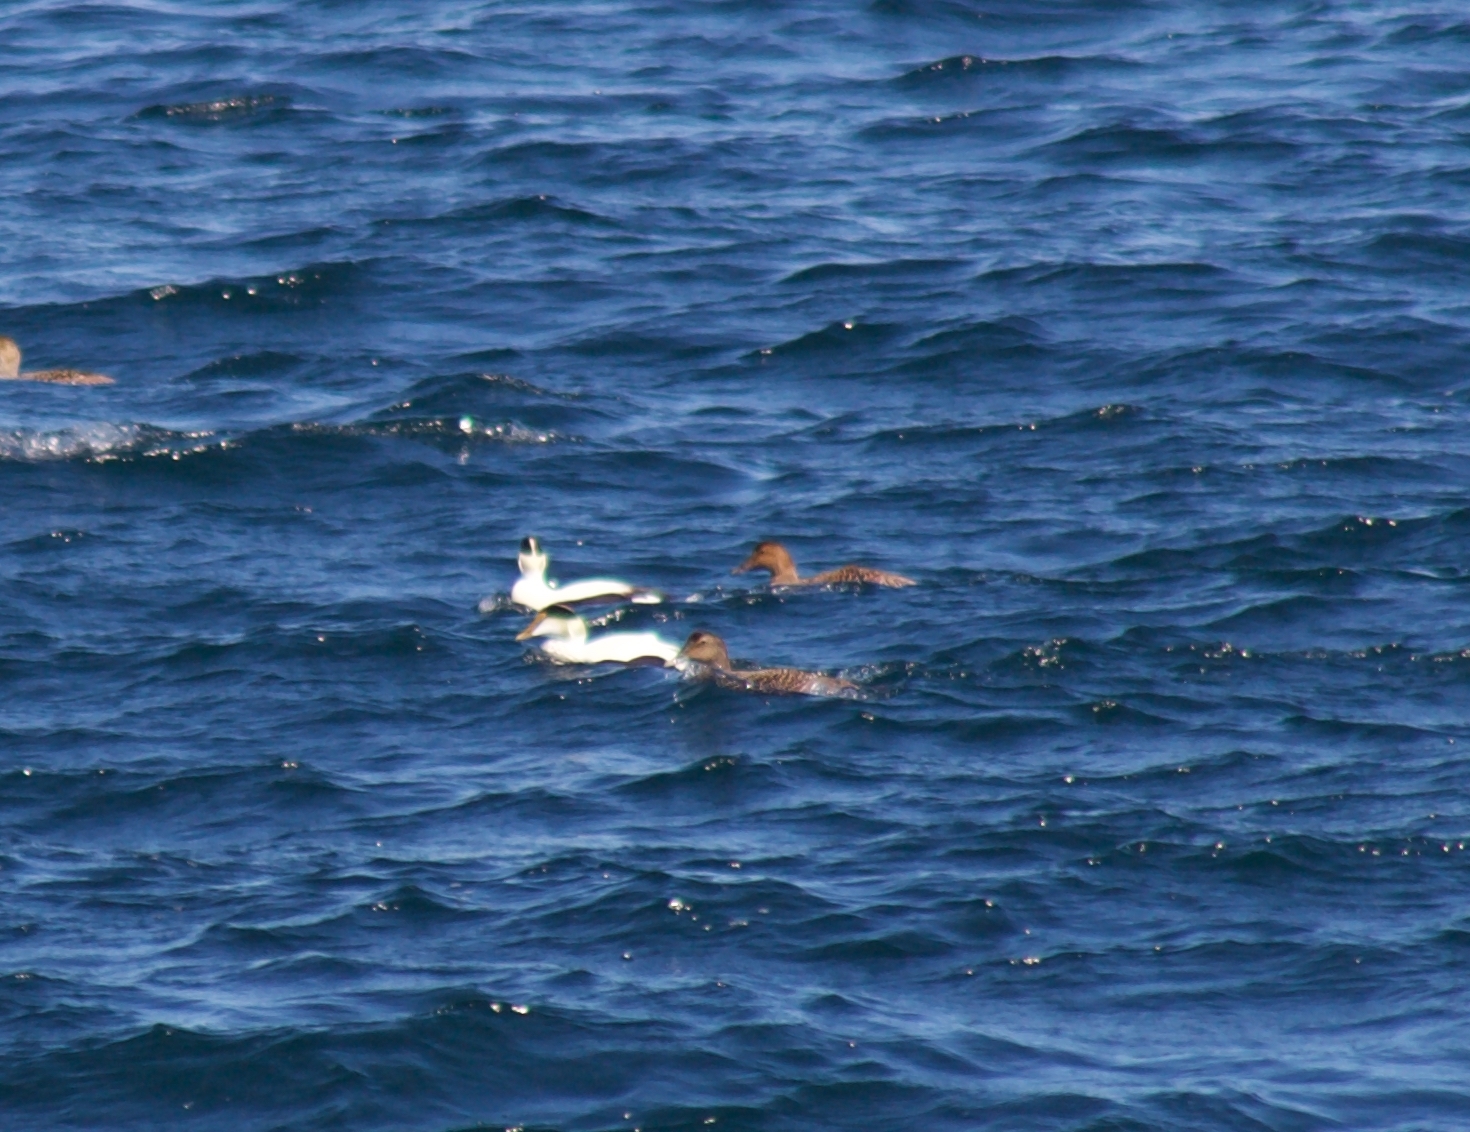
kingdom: Animalia
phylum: Chordata
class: Aves
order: Anseriformes
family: Anatidae
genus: Somateria
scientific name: Somateria mollissima
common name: Common eider
